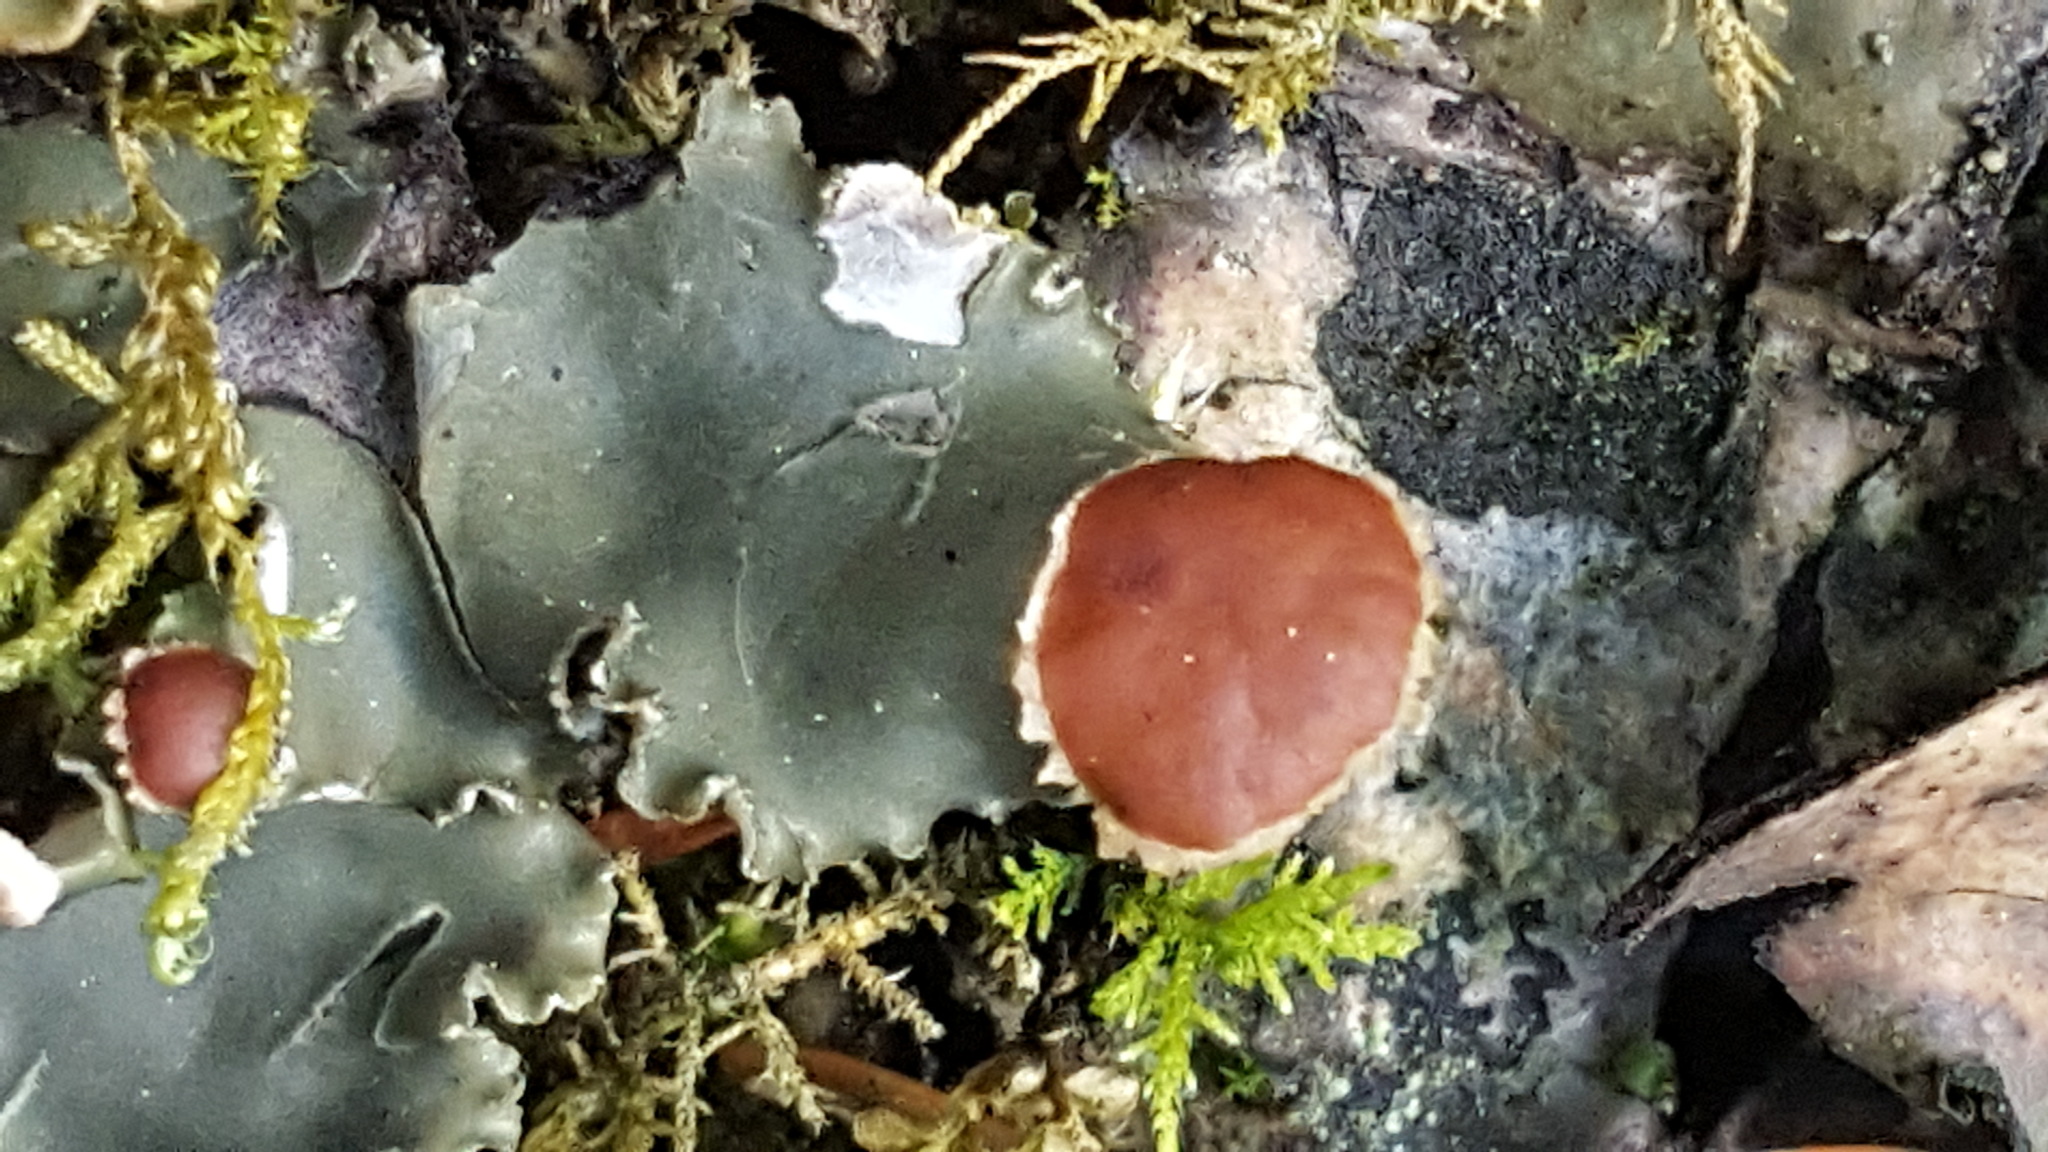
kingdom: Fungi
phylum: Ascomycota
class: Lecanoromycetes
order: Peltigerales
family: Peltigeraceae
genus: Peltigera
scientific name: Peltigera horizontalis
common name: Flat fruited pelt
